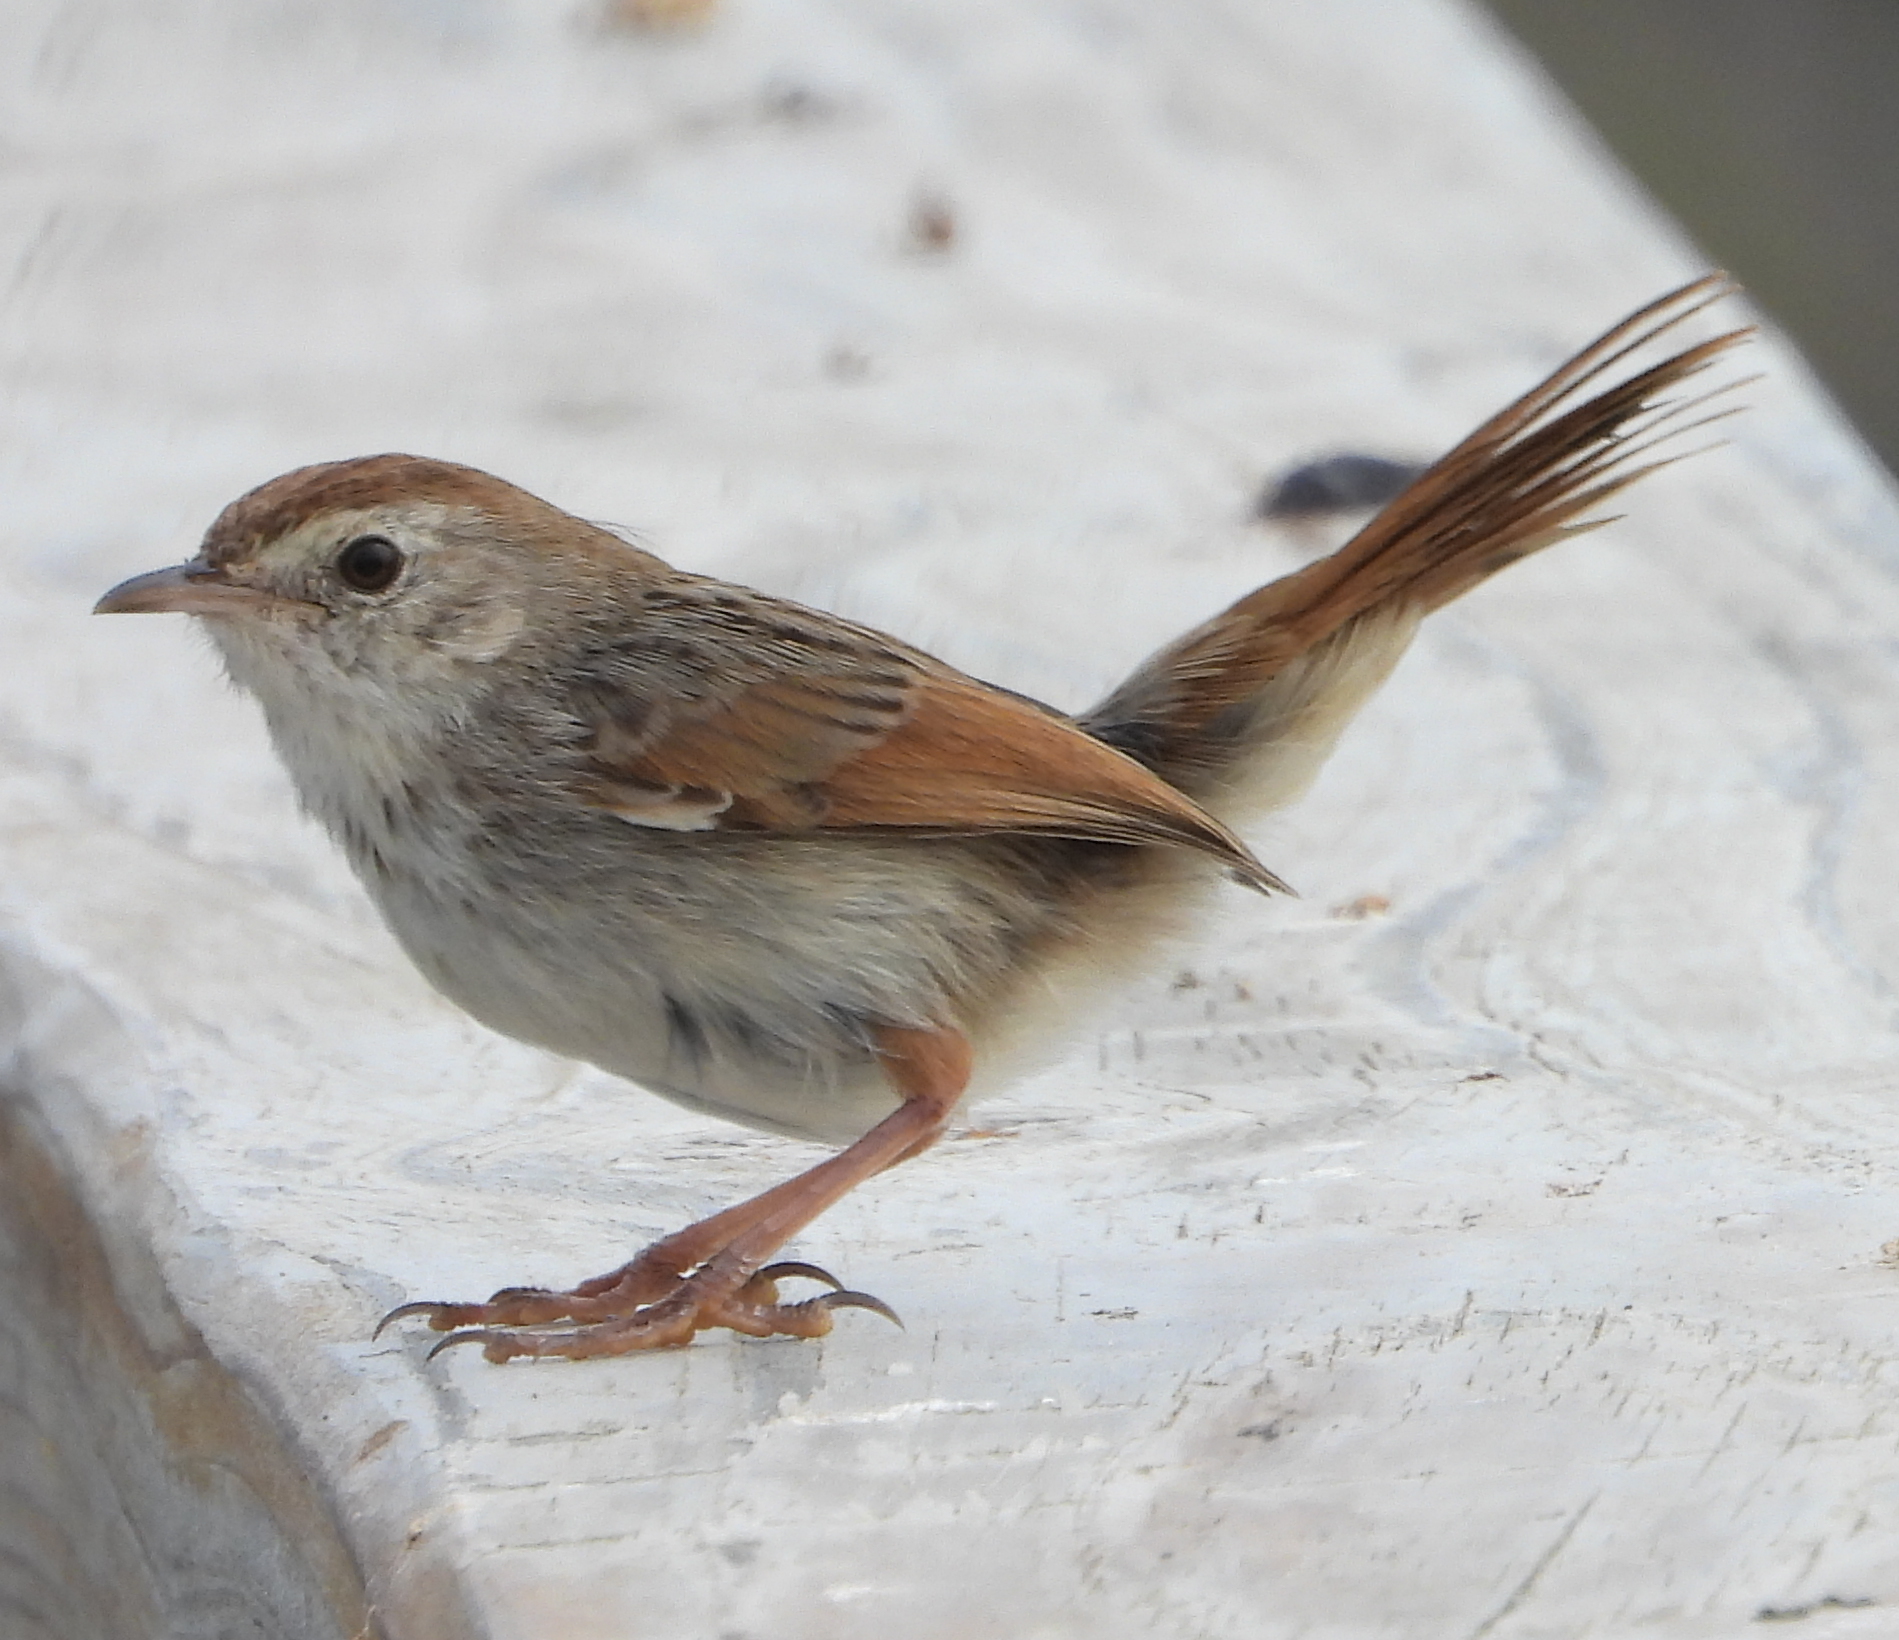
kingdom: Animalia
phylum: Chordata
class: Aves
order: Passeriformes
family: Cisticolidae
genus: Cisticola
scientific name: Cisticola subruficapilla
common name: Grey-backed cisticola
